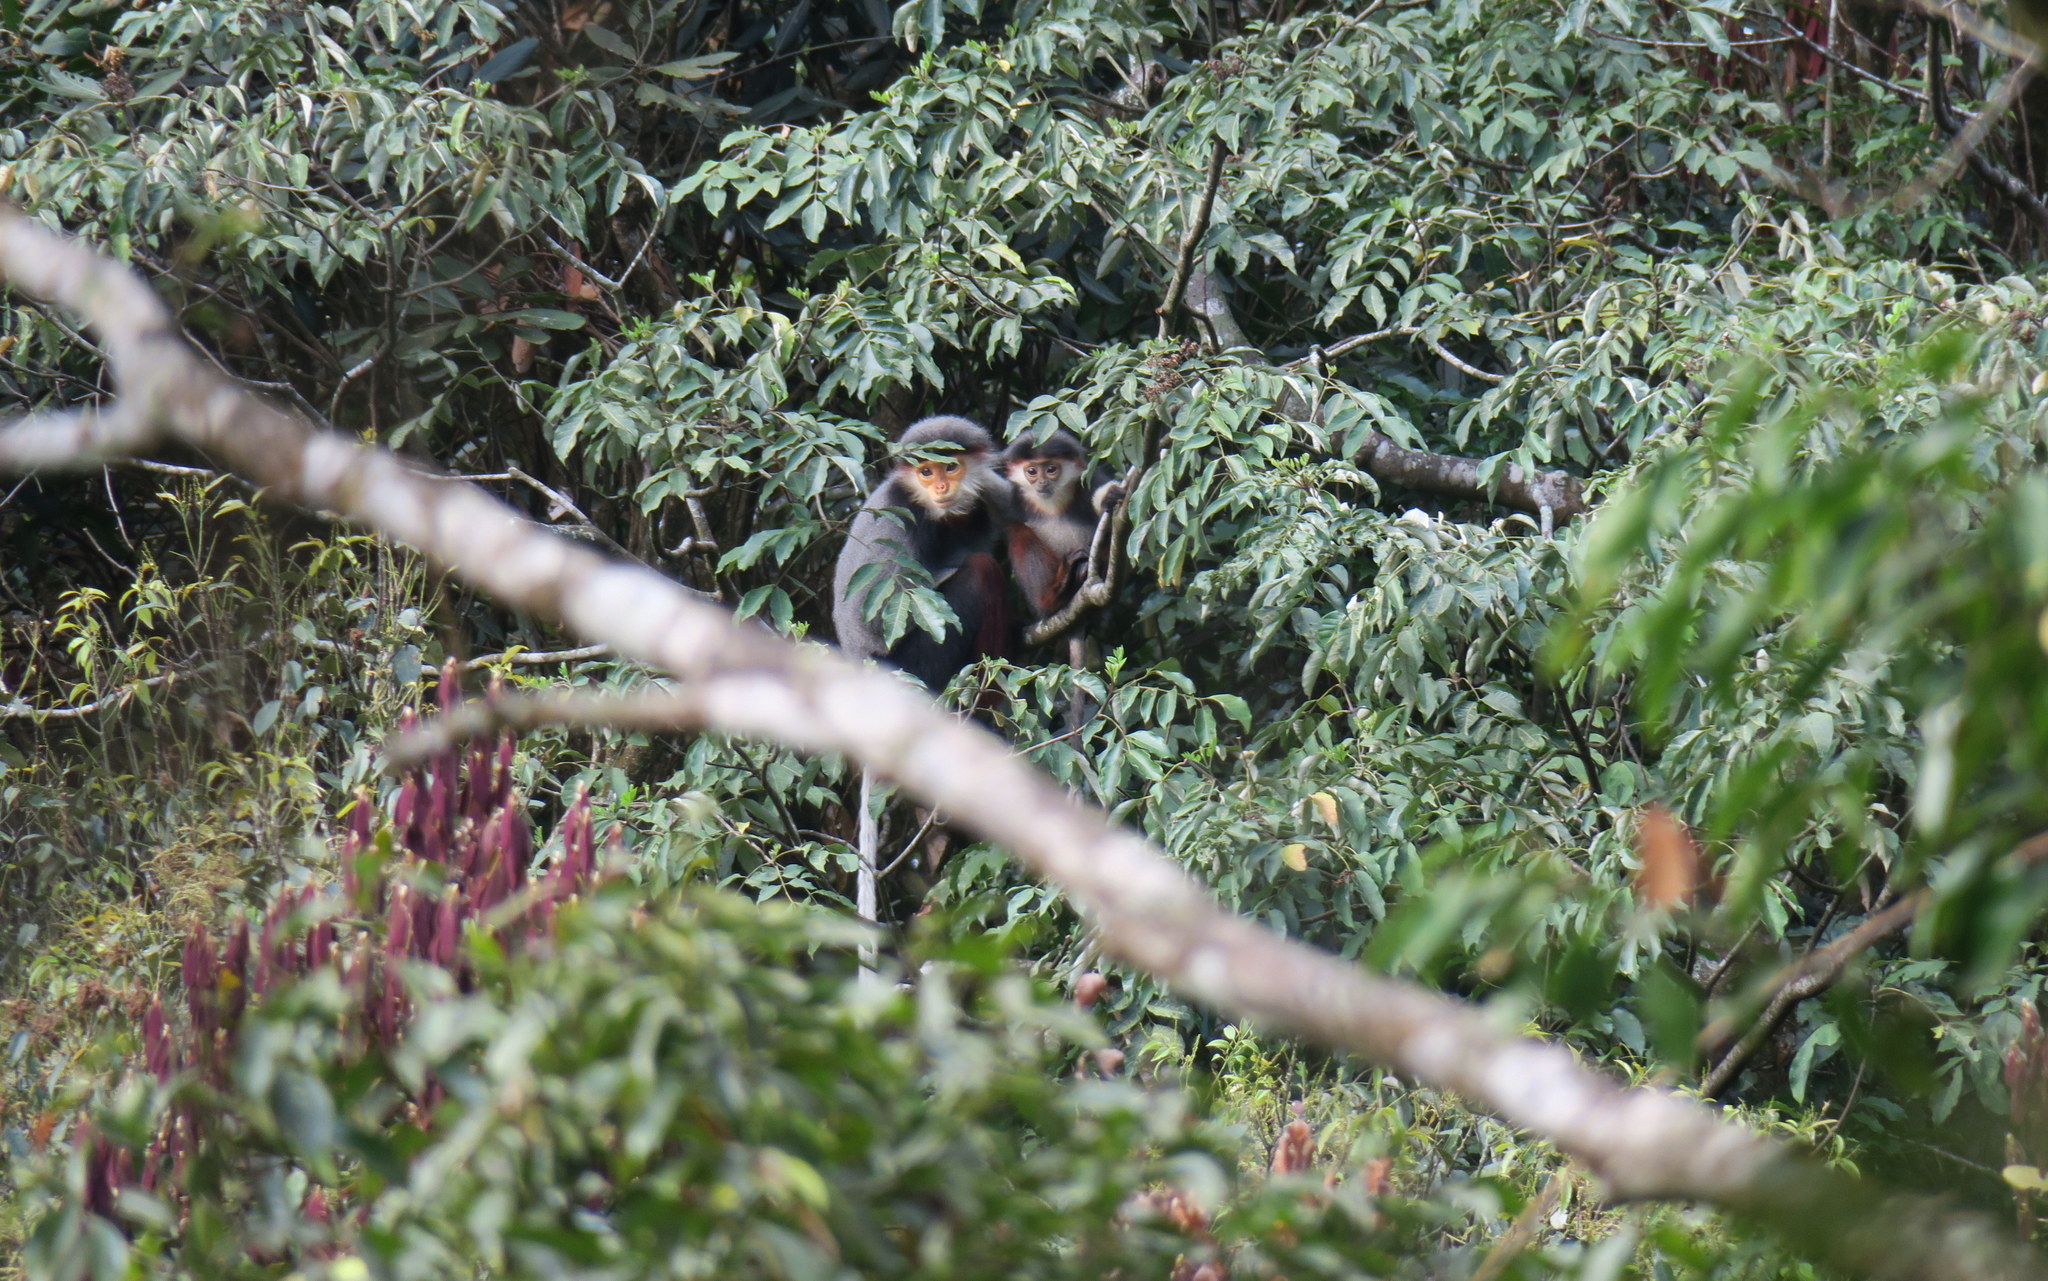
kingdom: Animalia
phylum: Chordata
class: Mammalia
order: Primates
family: Cercopithecidae
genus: Pygathrix
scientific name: Pygathrix nemaeus
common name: Red-shanked douc
